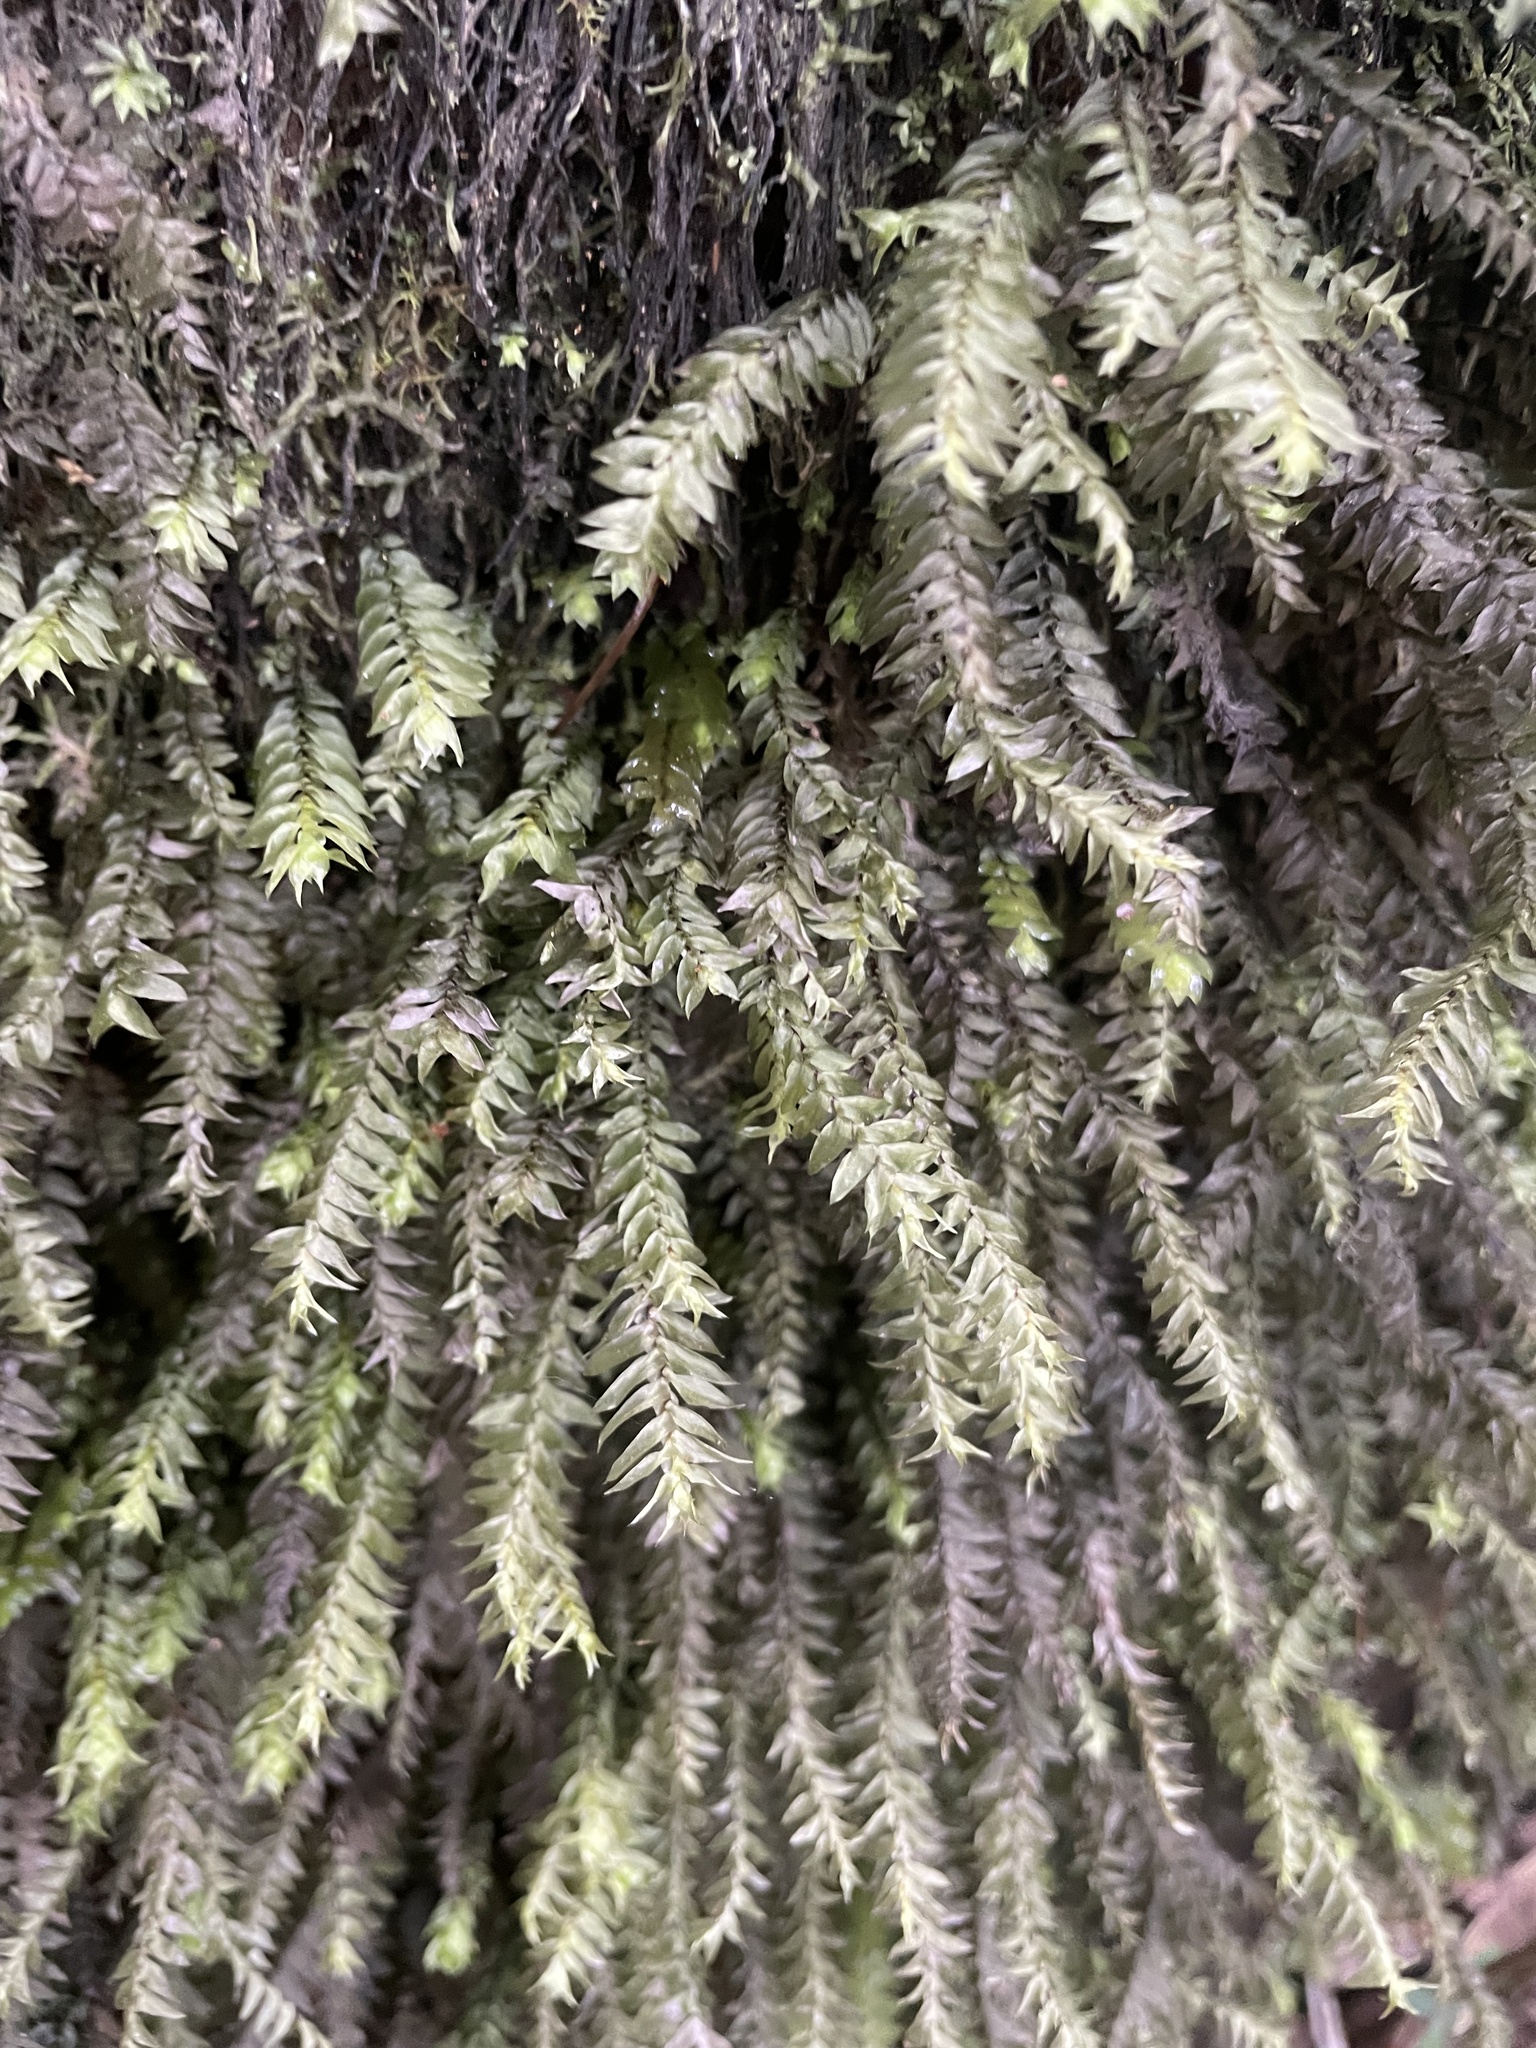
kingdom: Plantae
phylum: Bryophyta
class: Bryopsida
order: Hypopterygiales
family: Hypopterygiaceae
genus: Cyathophorum
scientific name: Cyathophorum bulbosum
